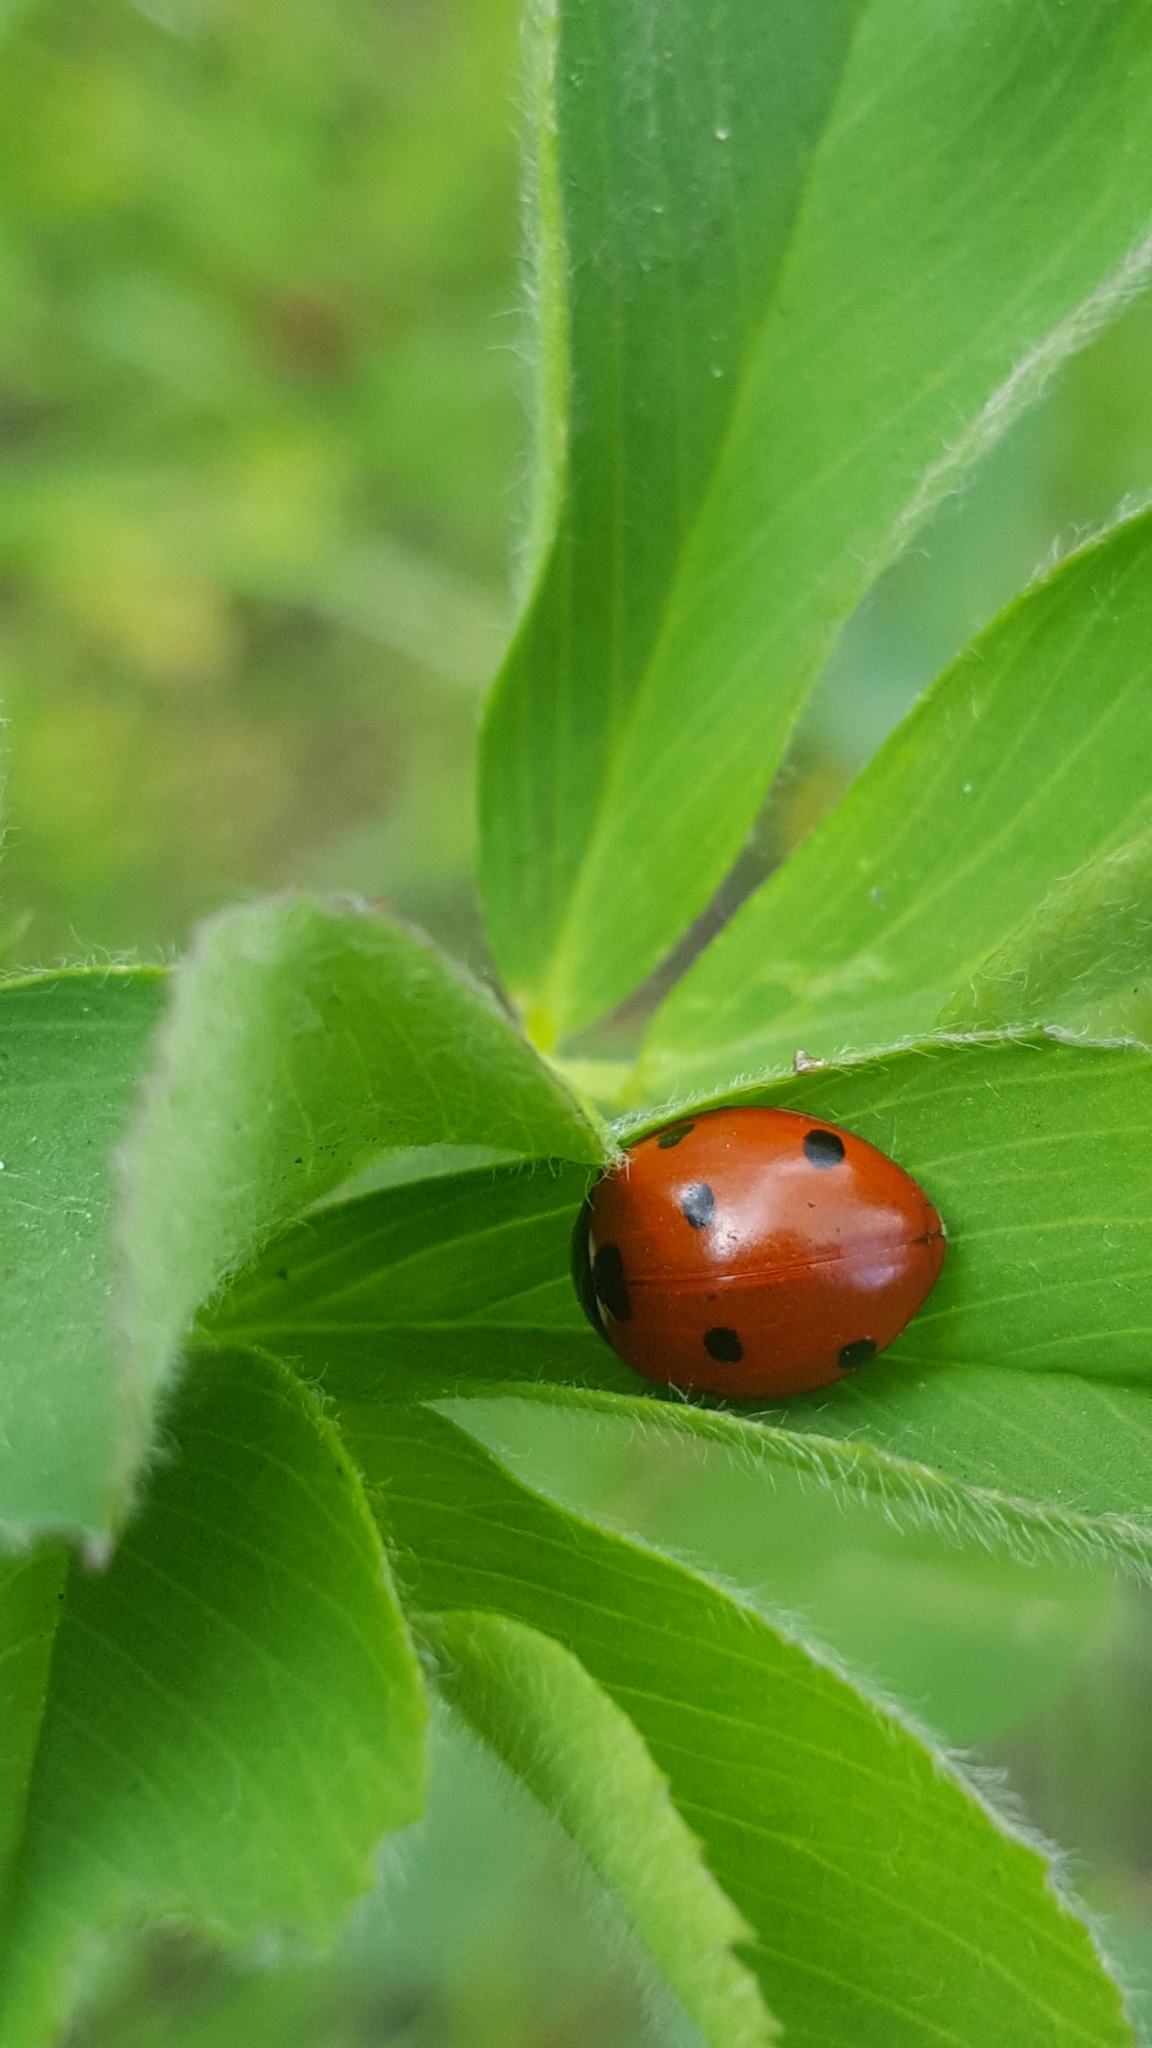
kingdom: Animalia
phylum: Arthropoda
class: Insecta
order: Coleoptera
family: Coccinellidae
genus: Coccinella
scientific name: Coccinella septempunctata
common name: Sevenspotted lady beetle
